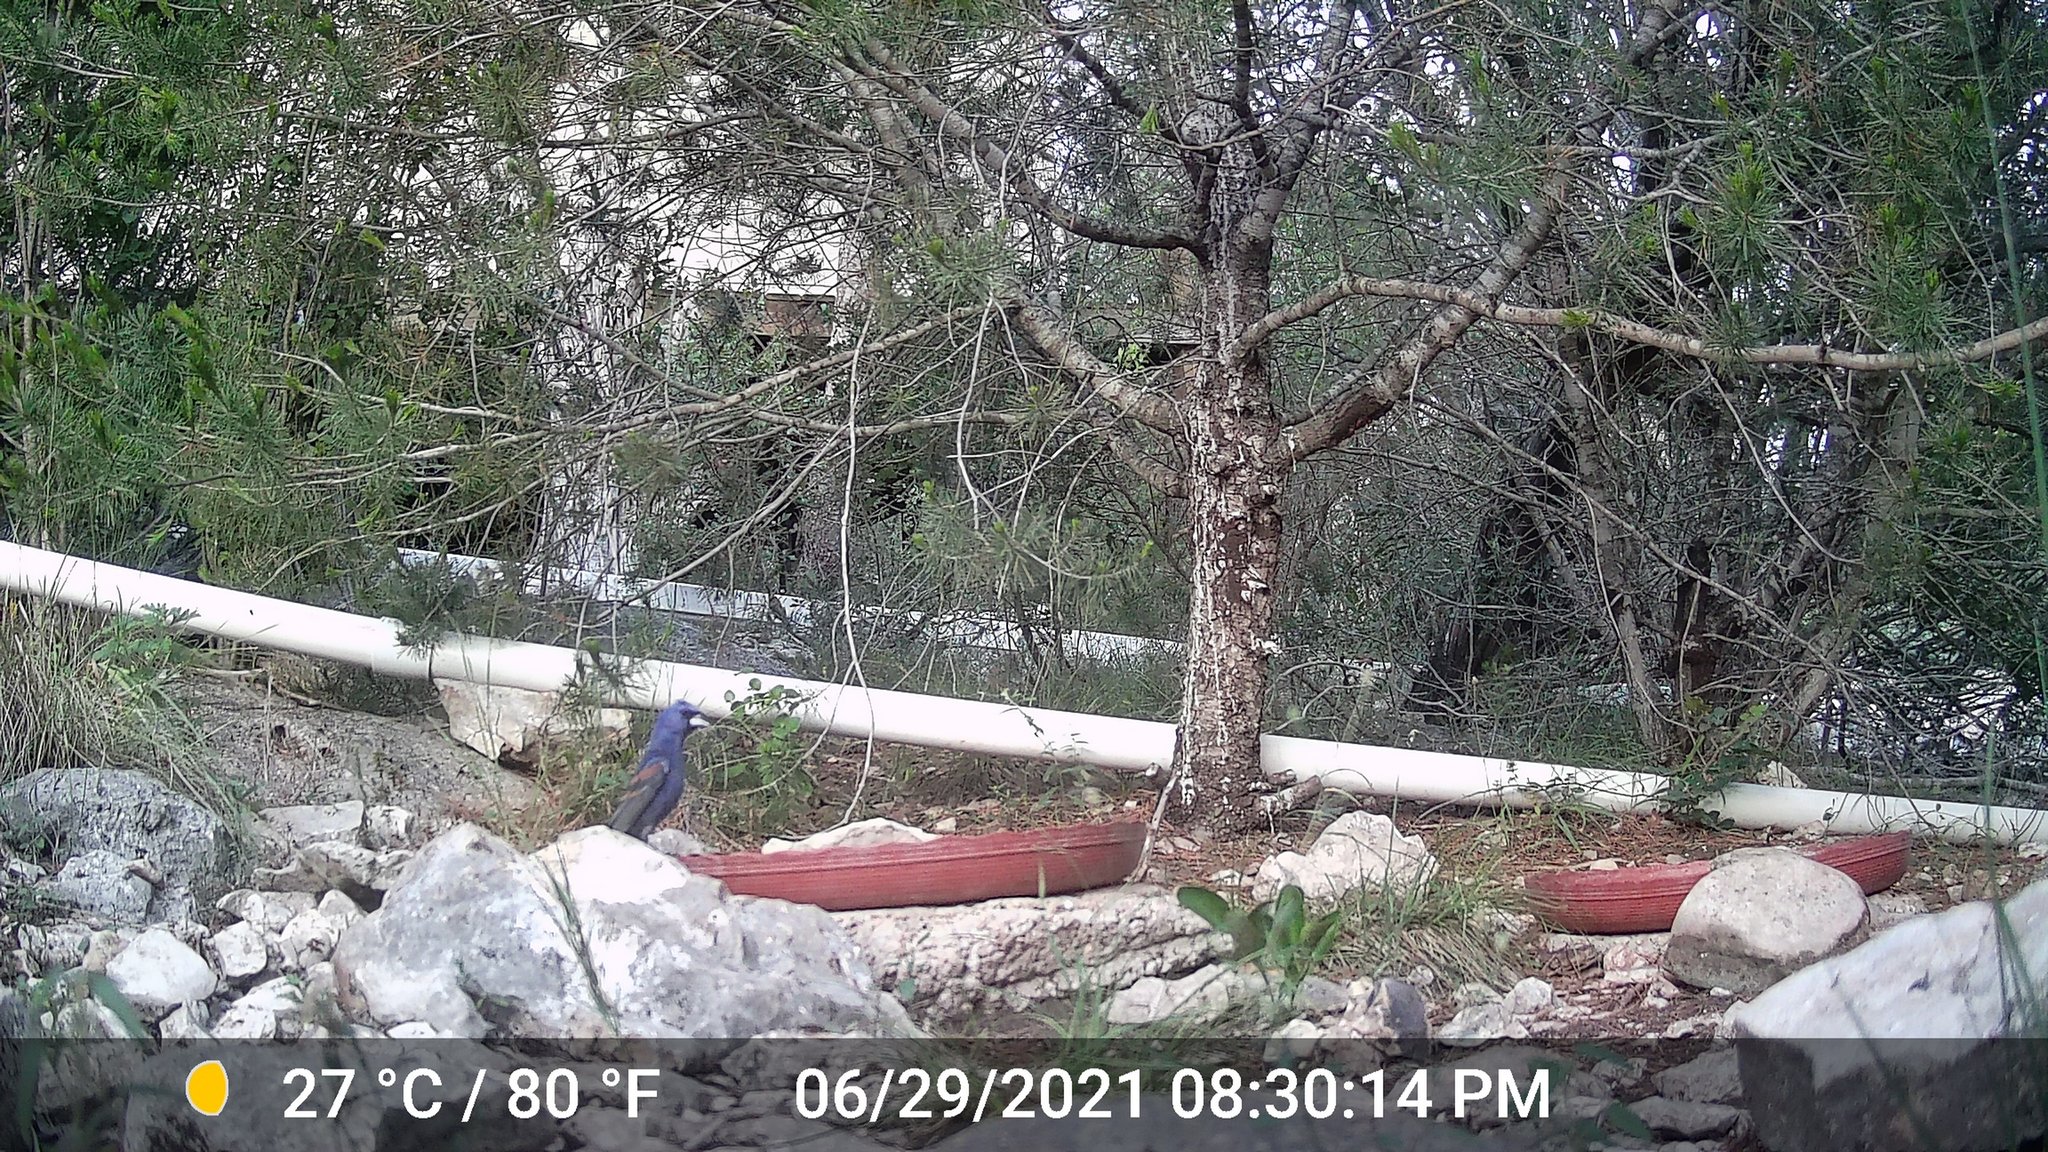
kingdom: Animalia
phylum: Chordata
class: Aves
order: Passeriformes
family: Cardinalidae
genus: Passerina
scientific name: Passerina caerulea
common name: Blue grosbeak
